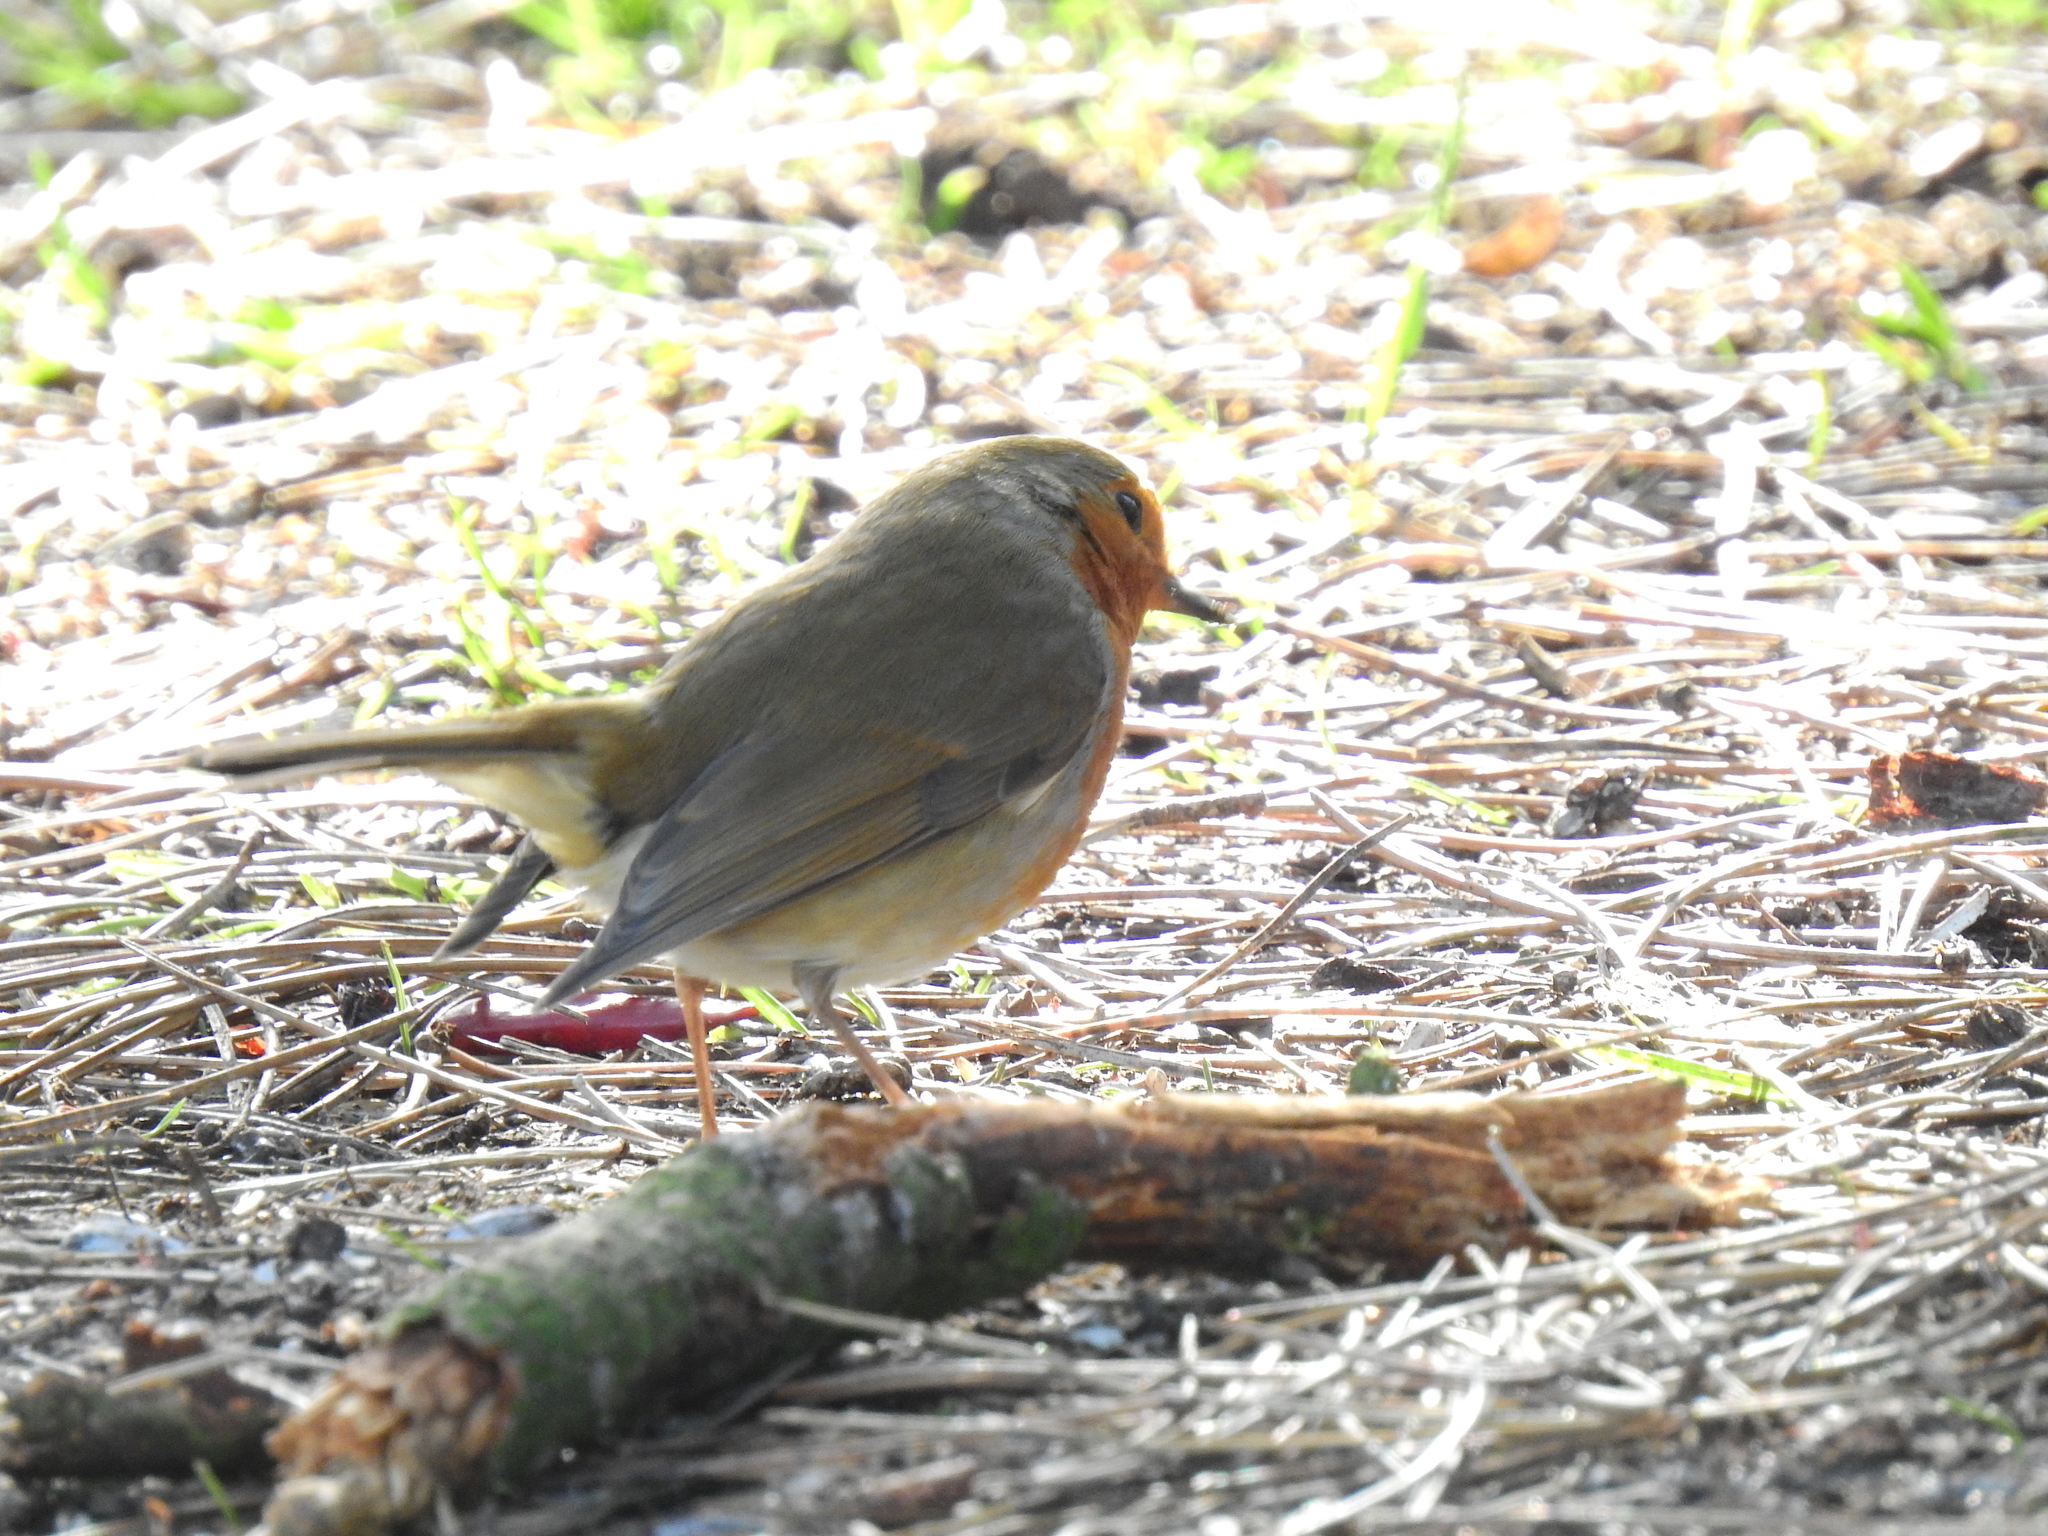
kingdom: Animalia
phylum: Chordata
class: Aves
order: Passeriformes
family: Muscicapidae
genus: Erithacus
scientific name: Erithacus rubecula
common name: European robin
